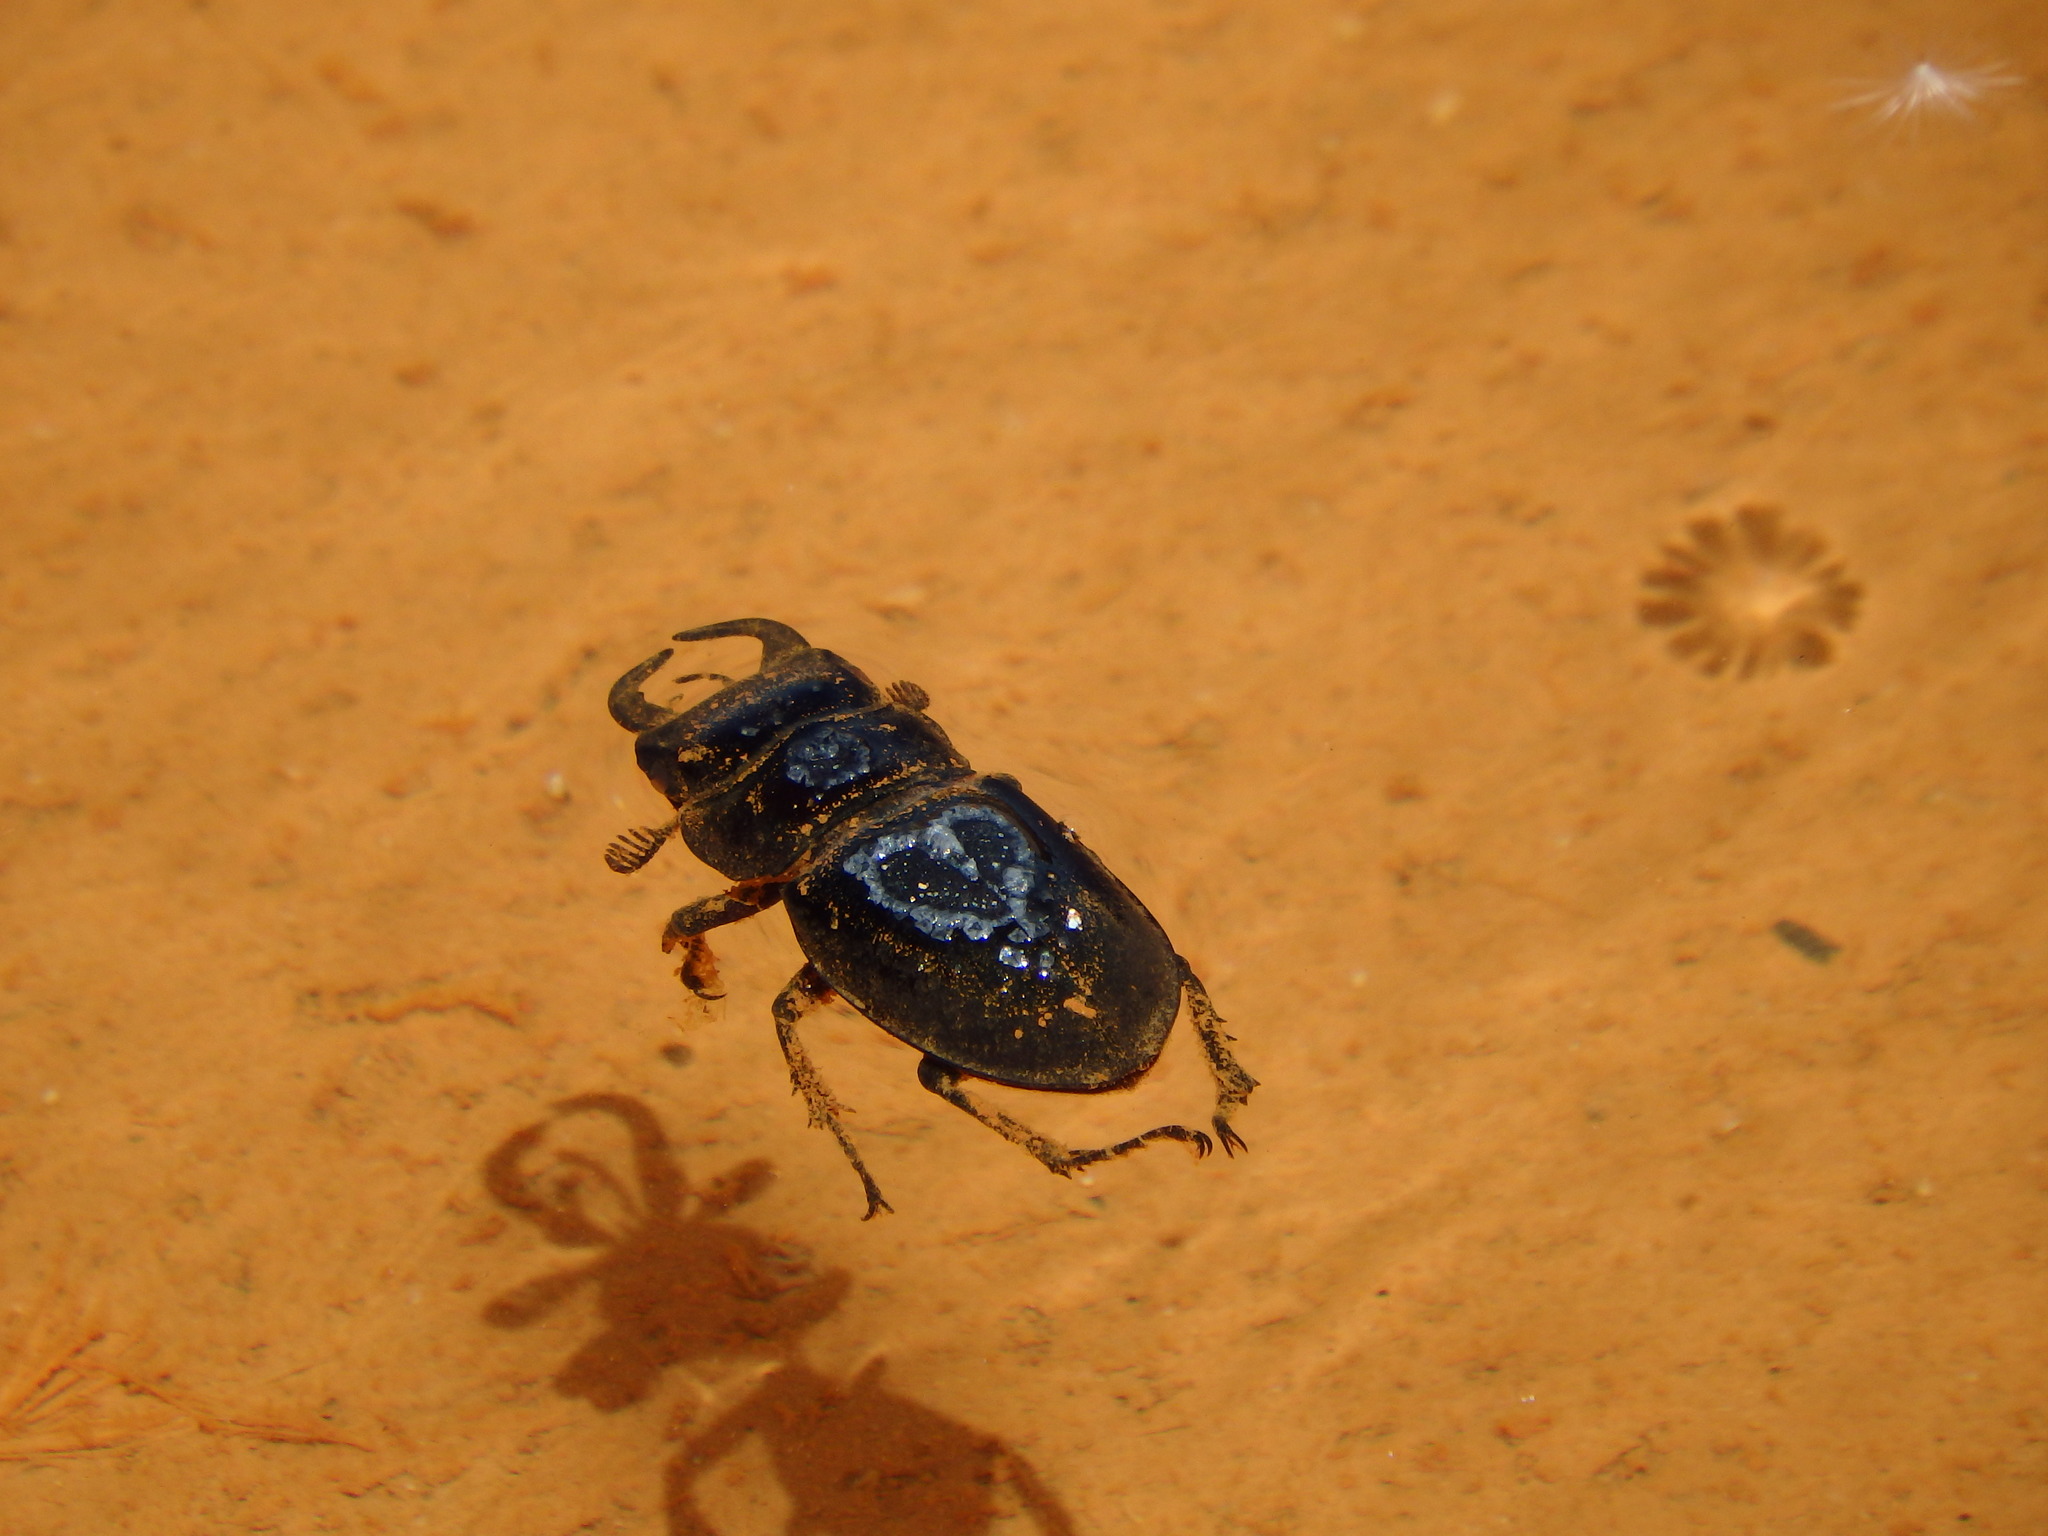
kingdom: Animalia
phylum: Arthropoda
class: Insecta
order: Coleoptera
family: Lucanidae
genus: Lucanus
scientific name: Lucanus barbarossa
